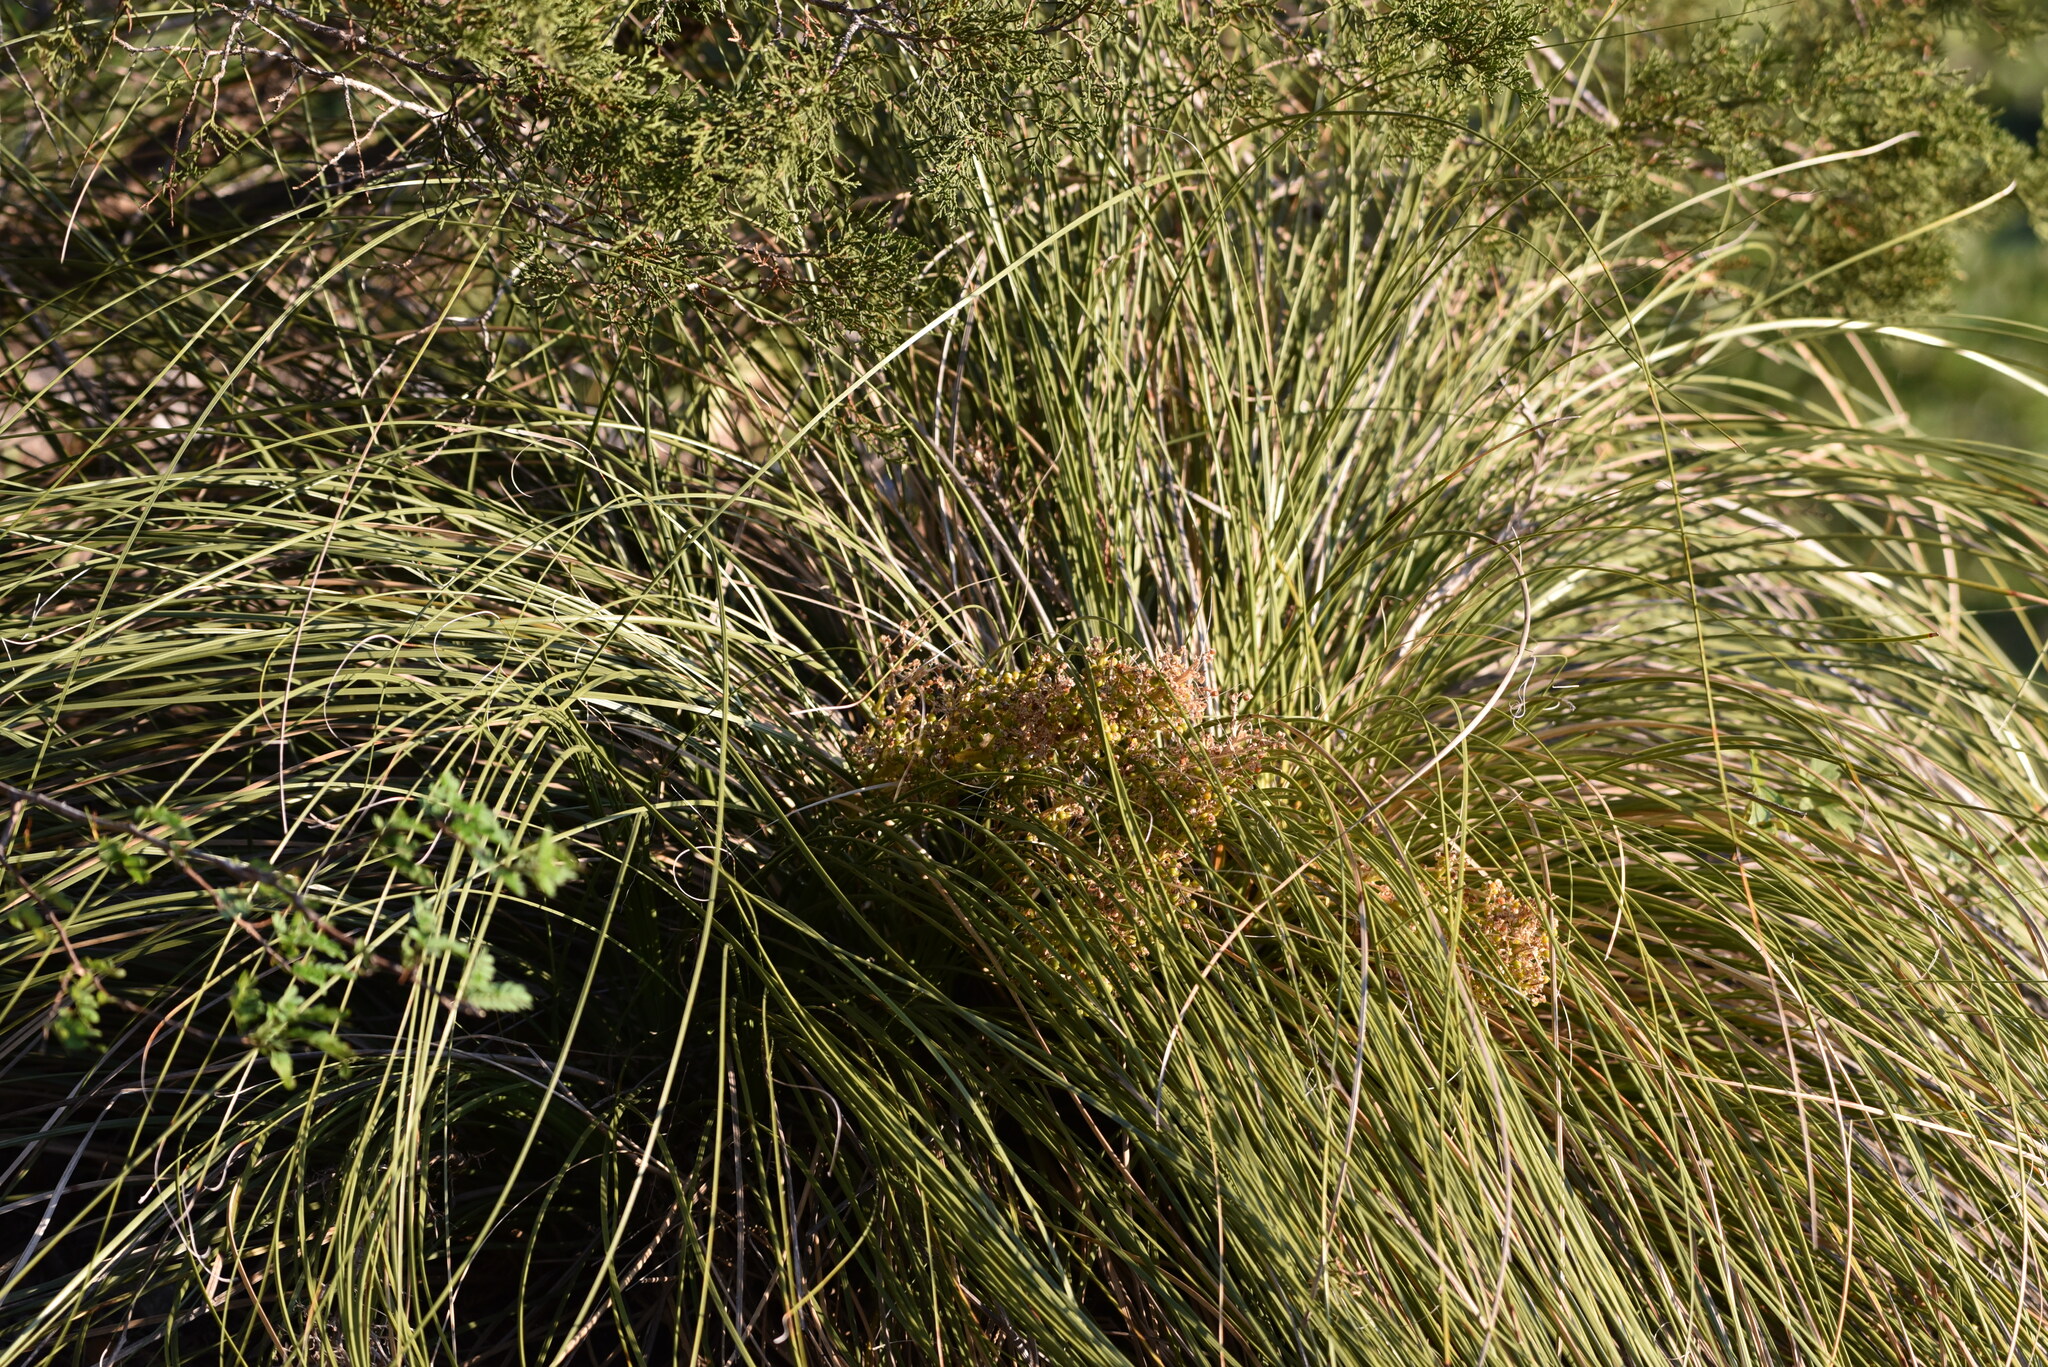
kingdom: Plantae
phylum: Tracheophyta
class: Liliopsida
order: Asparagales
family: Asparagaceae
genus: Nolina
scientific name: Nolina texana
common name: Texas sacahuiste
